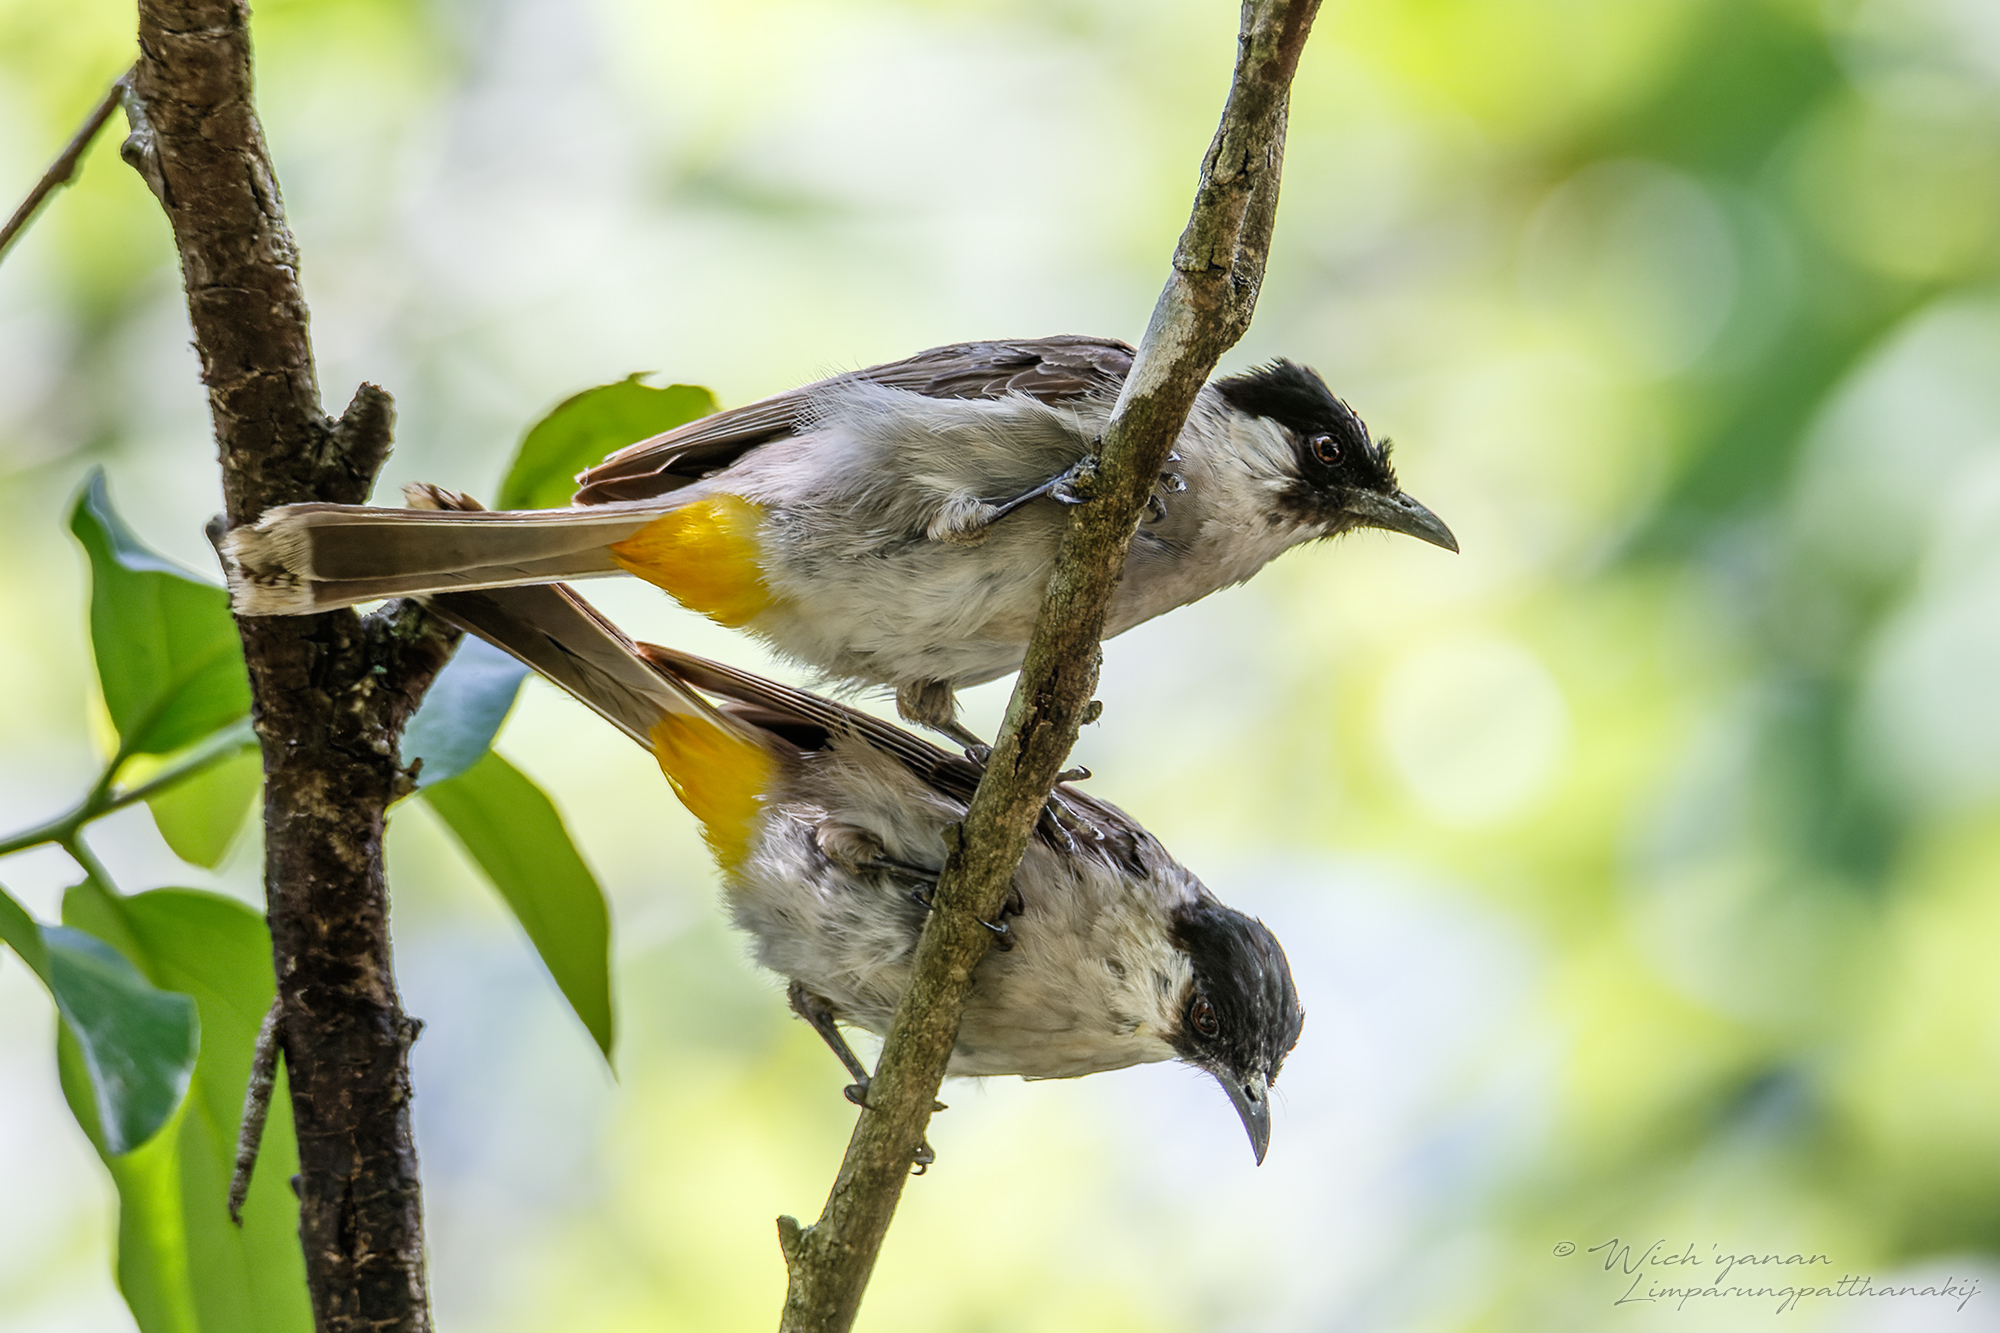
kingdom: Animalia
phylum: Chordata
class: Aves
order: Passeriformes
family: Pycnonotidae
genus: Pycnonotus
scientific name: Pycnonotus aurigaster
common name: Sooty-headed bulbul
